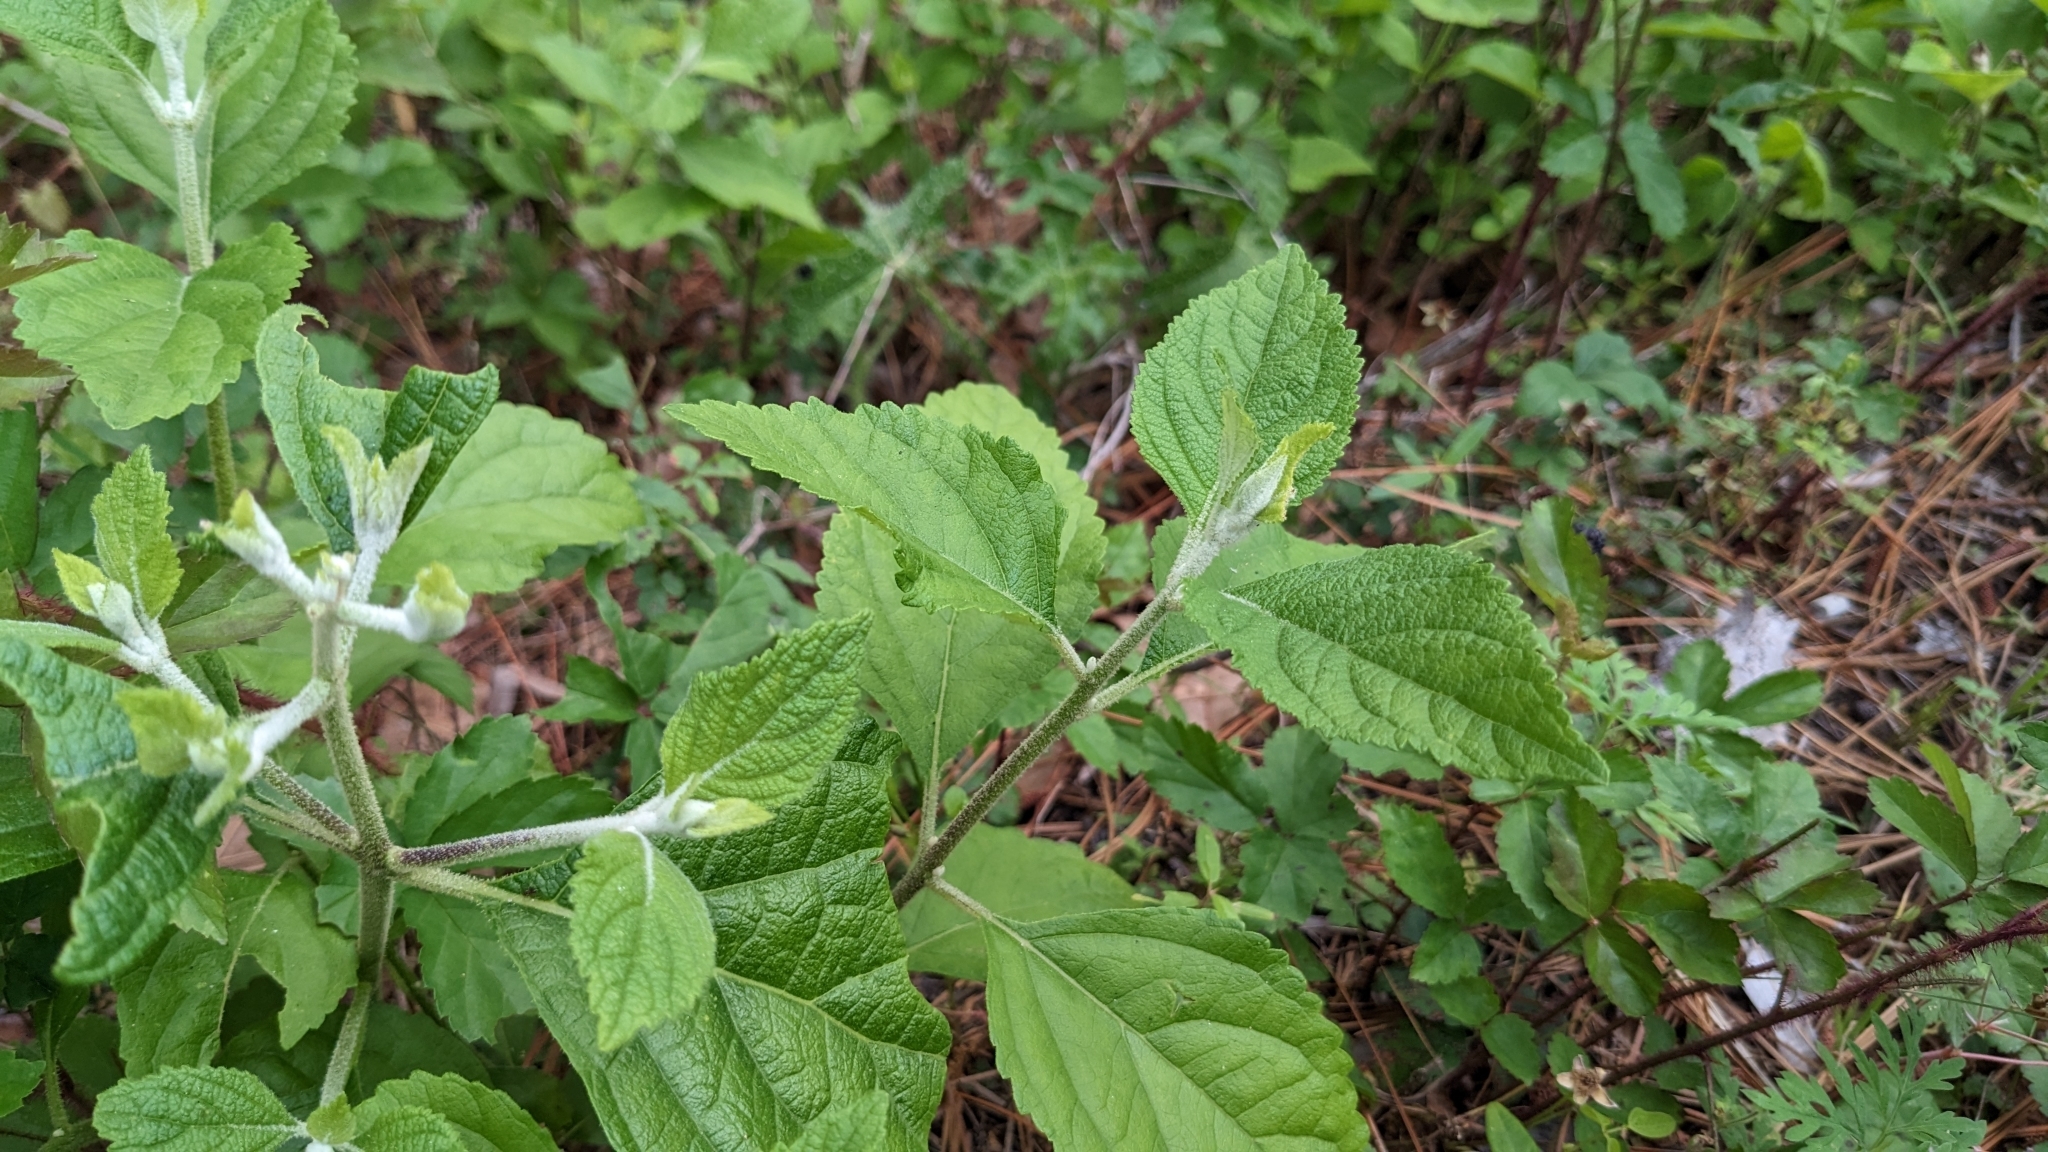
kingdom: Plantae
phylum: Tracheophyta
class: Magnoliopsida
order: Lamiales
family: Lamiaceae
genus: Callicarpa
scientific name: Callicarpa americana
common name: American beautyberry
